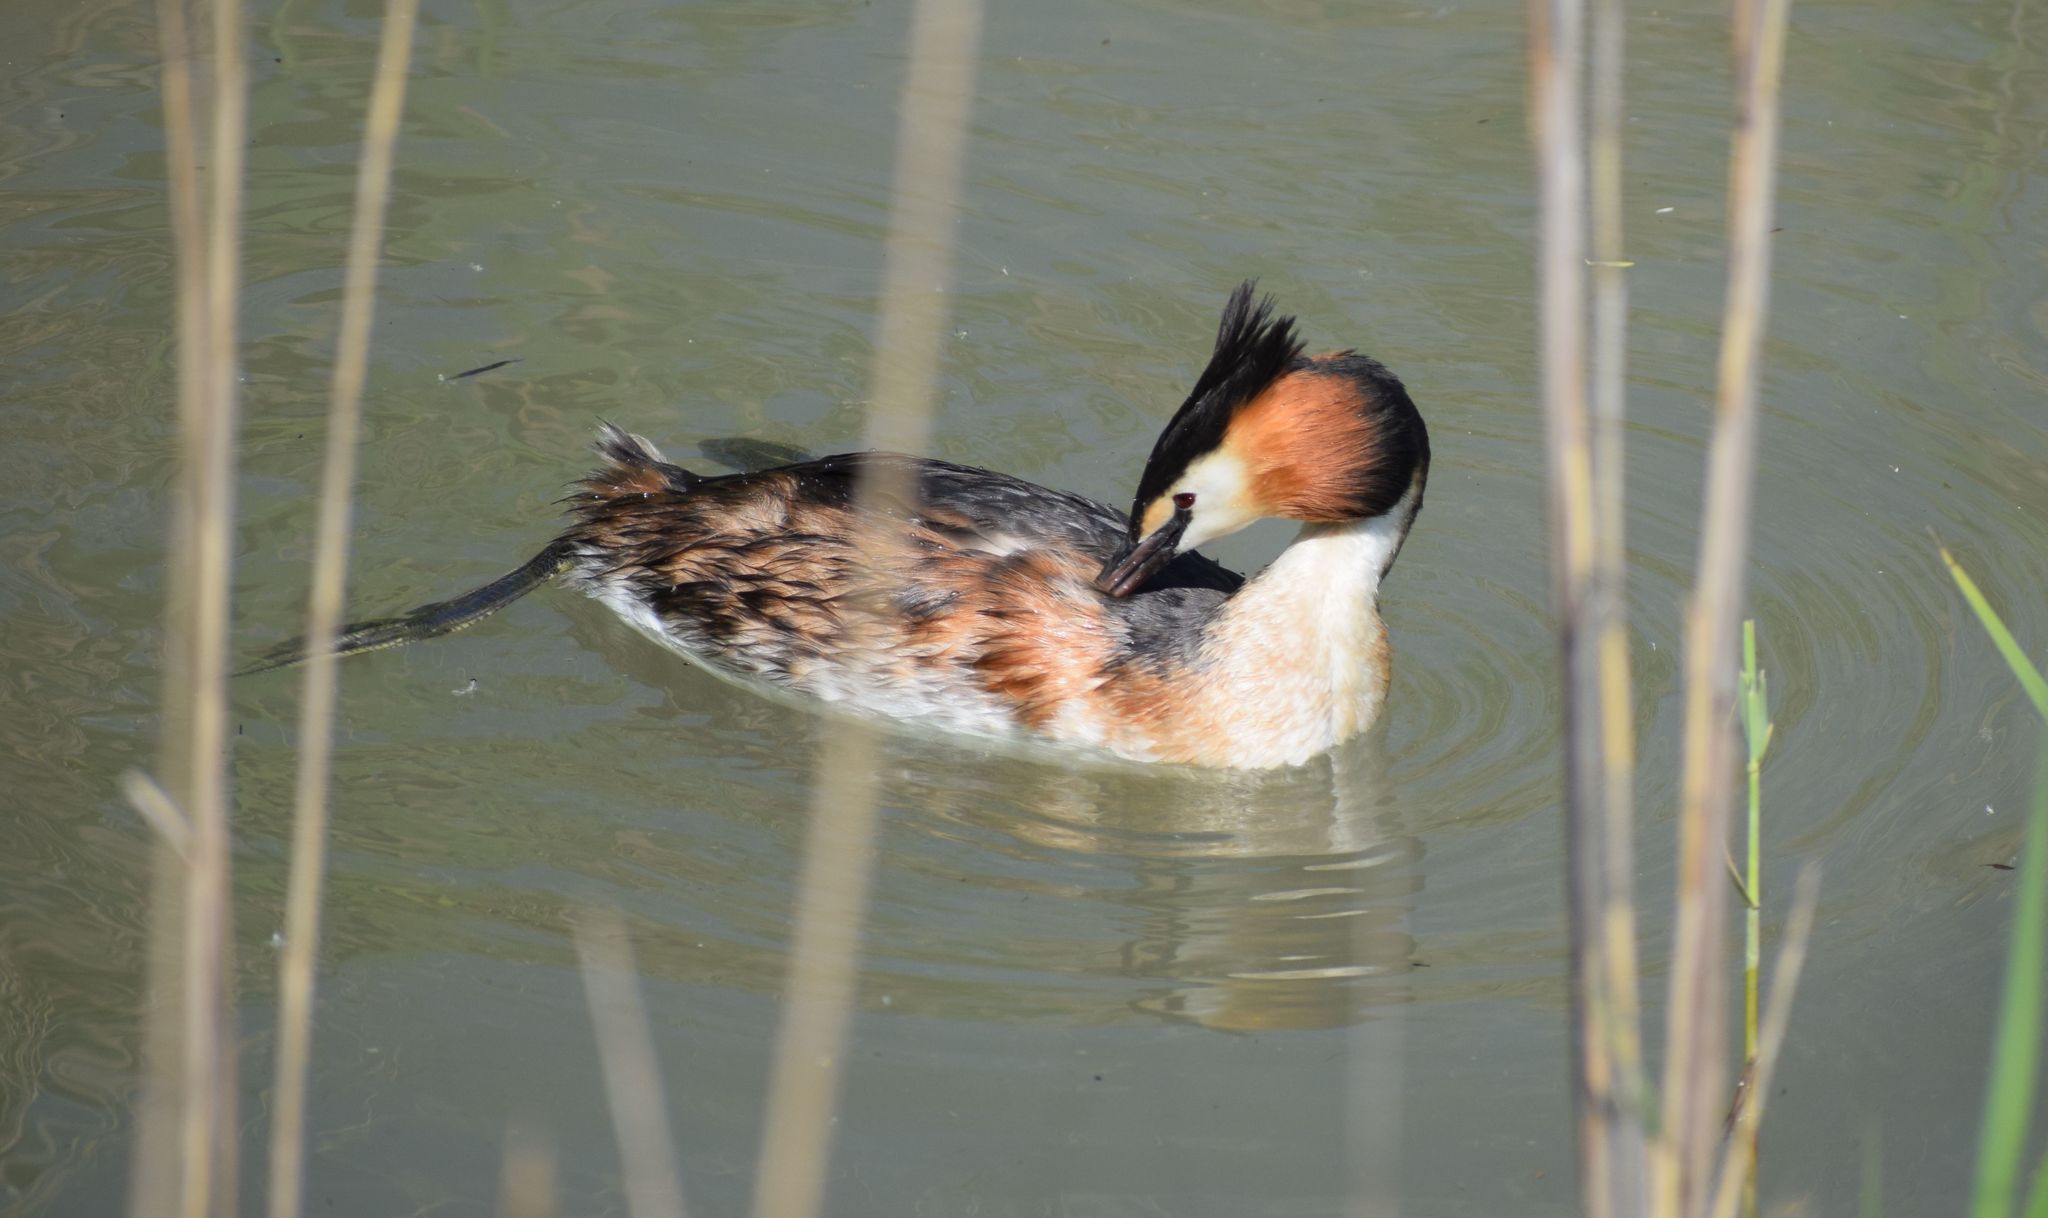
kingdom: Animalia
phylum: Chordata
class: Aves
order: Podicipediformes
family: Podicipedidae
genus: Podiceps
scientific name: Podiceps cristatus
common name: Great crested grebe
